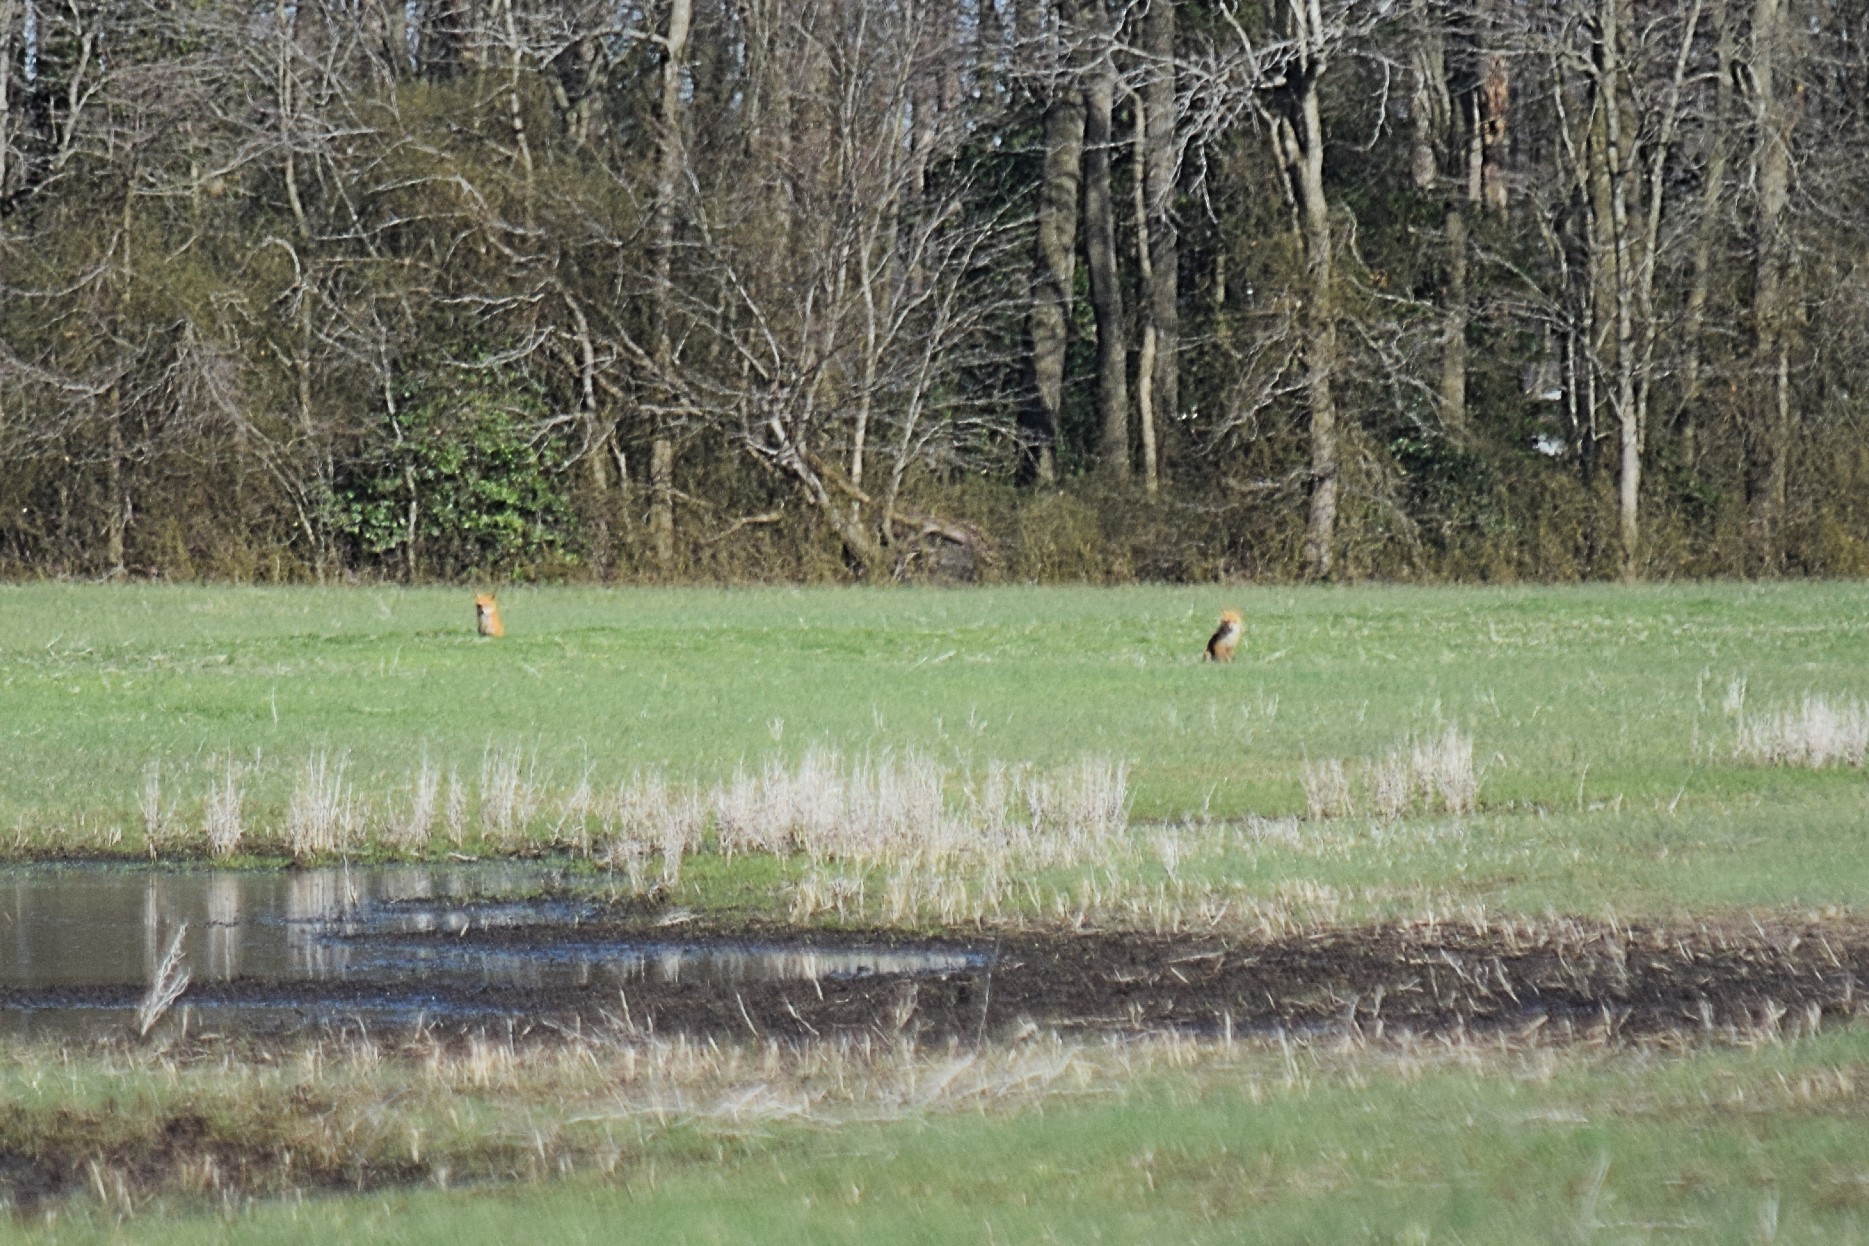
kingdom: Animalia
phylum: Chordata
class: Mammalia
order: Carnivora
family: Canidae
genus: Vulpes
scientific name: Vulpes vulpes
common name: Red fox
